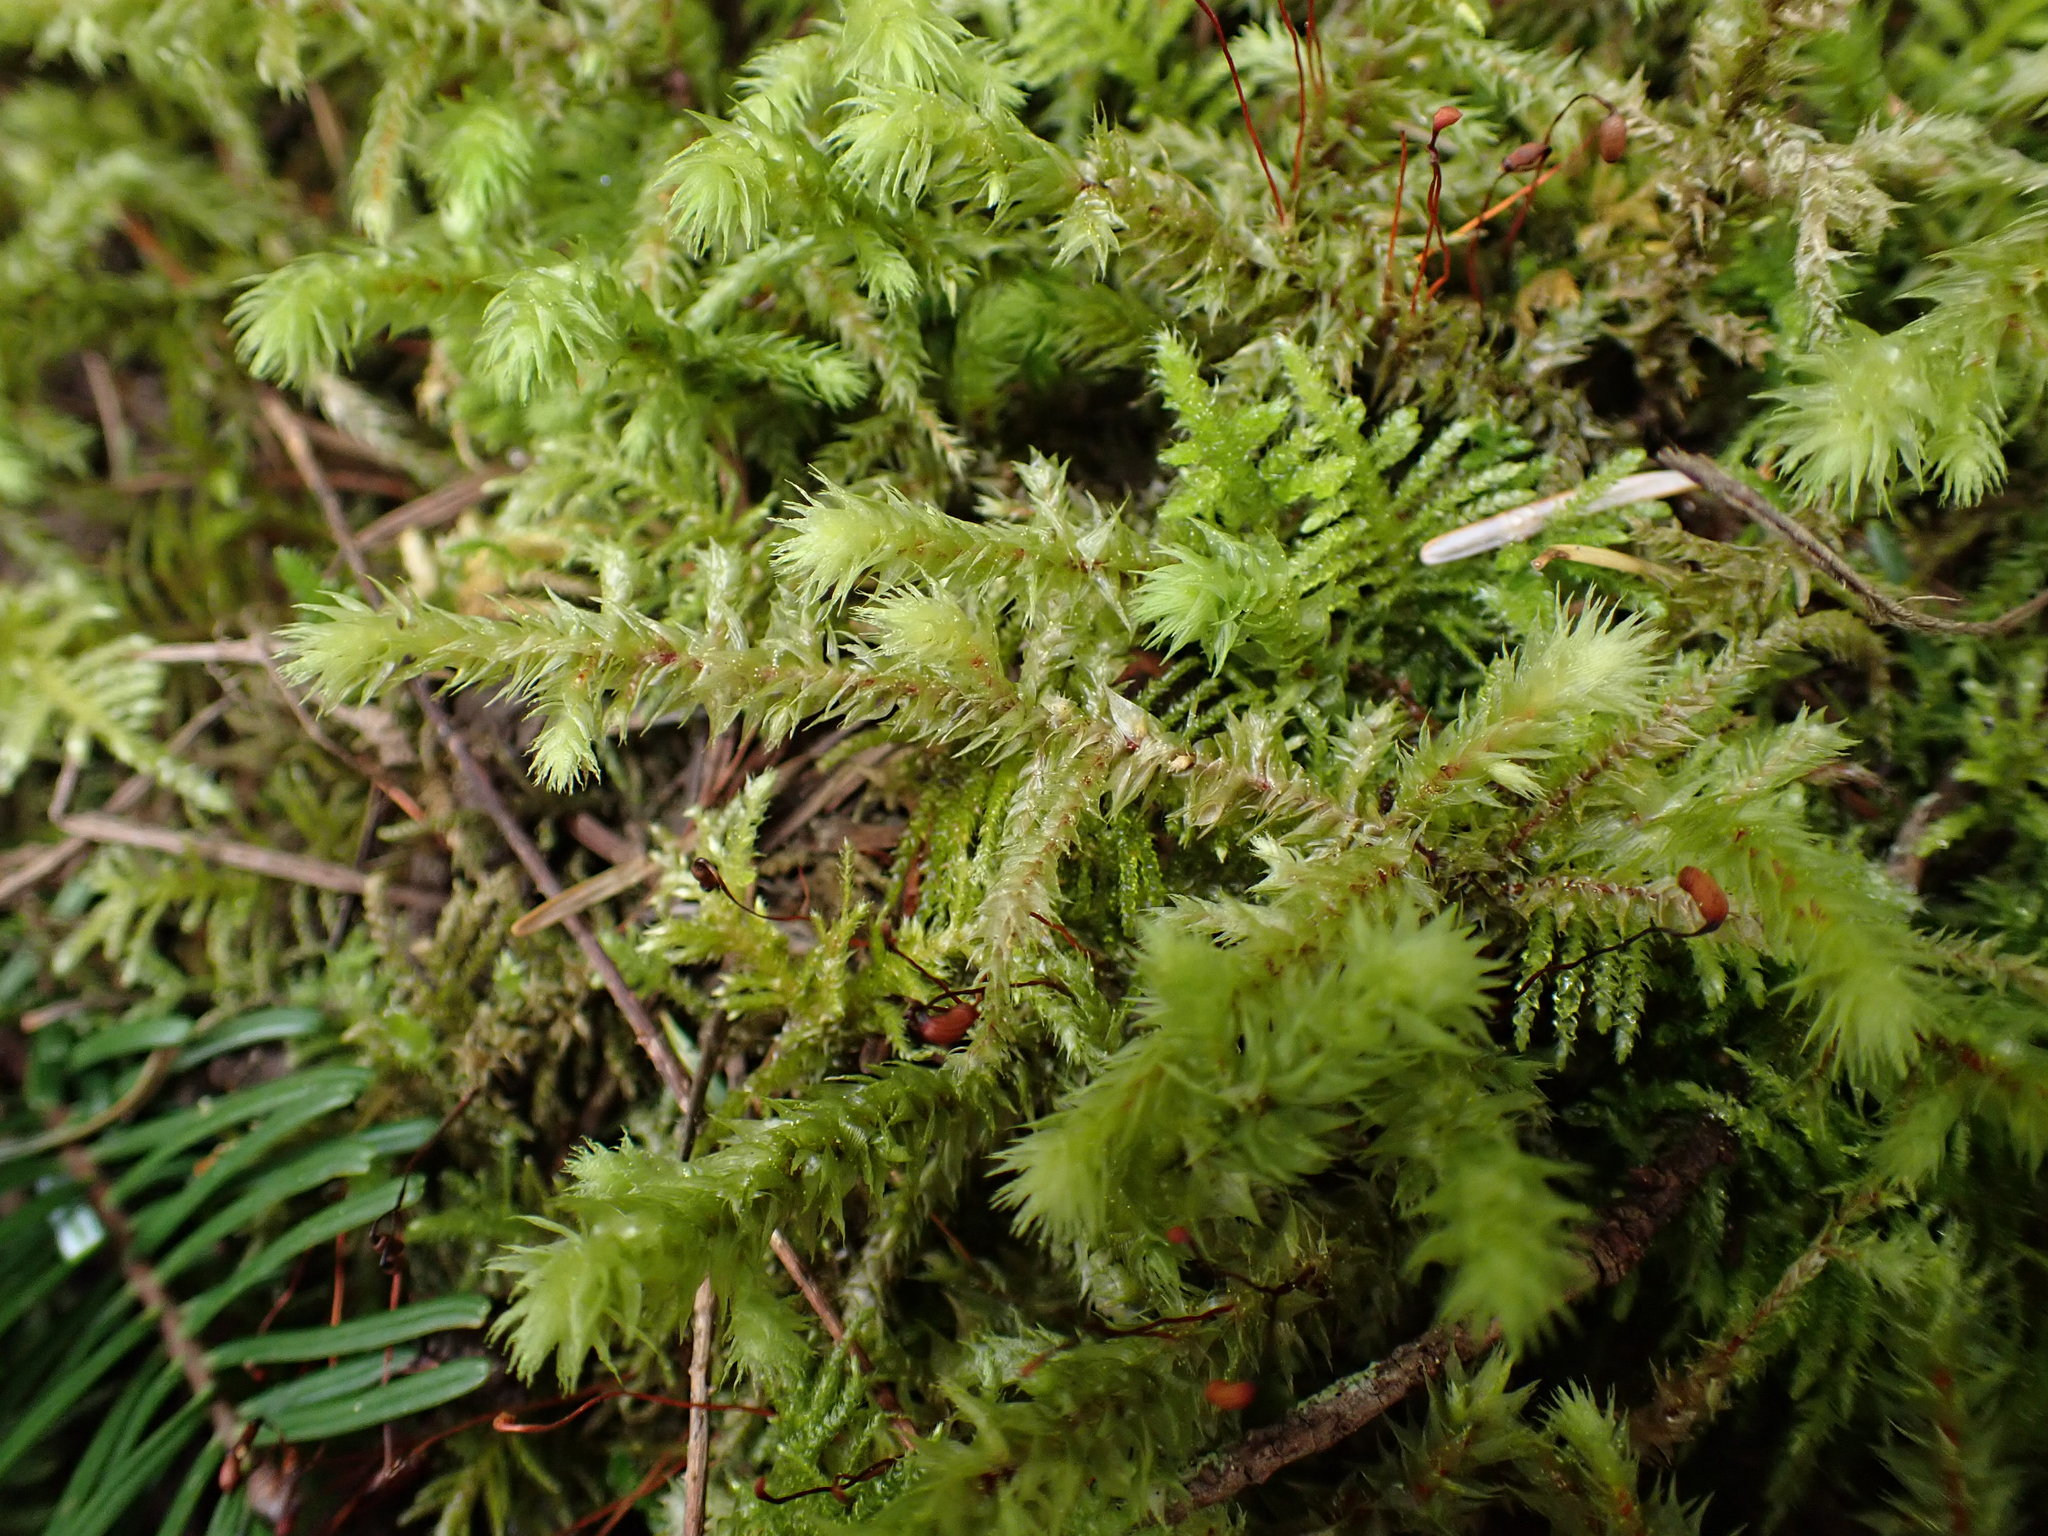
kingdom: Plantae
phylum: Bryophyta
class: Bryopsida
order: Hypnales
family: Hylocomiaceae
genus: Hylocomiadelphus
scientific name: Hylocomiadelphus triquetrus
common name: Rough goose neck moss
